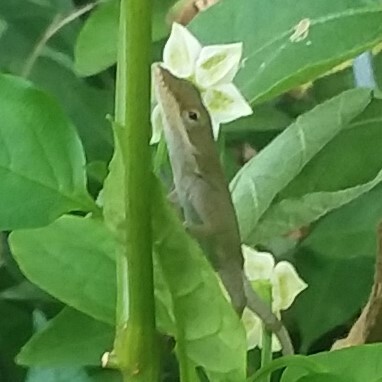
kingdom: Animalia
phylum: Chordata
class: Squamata
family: Dactyloidae
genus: Anolis
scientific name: Anolis carolinensis
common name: Green anole
